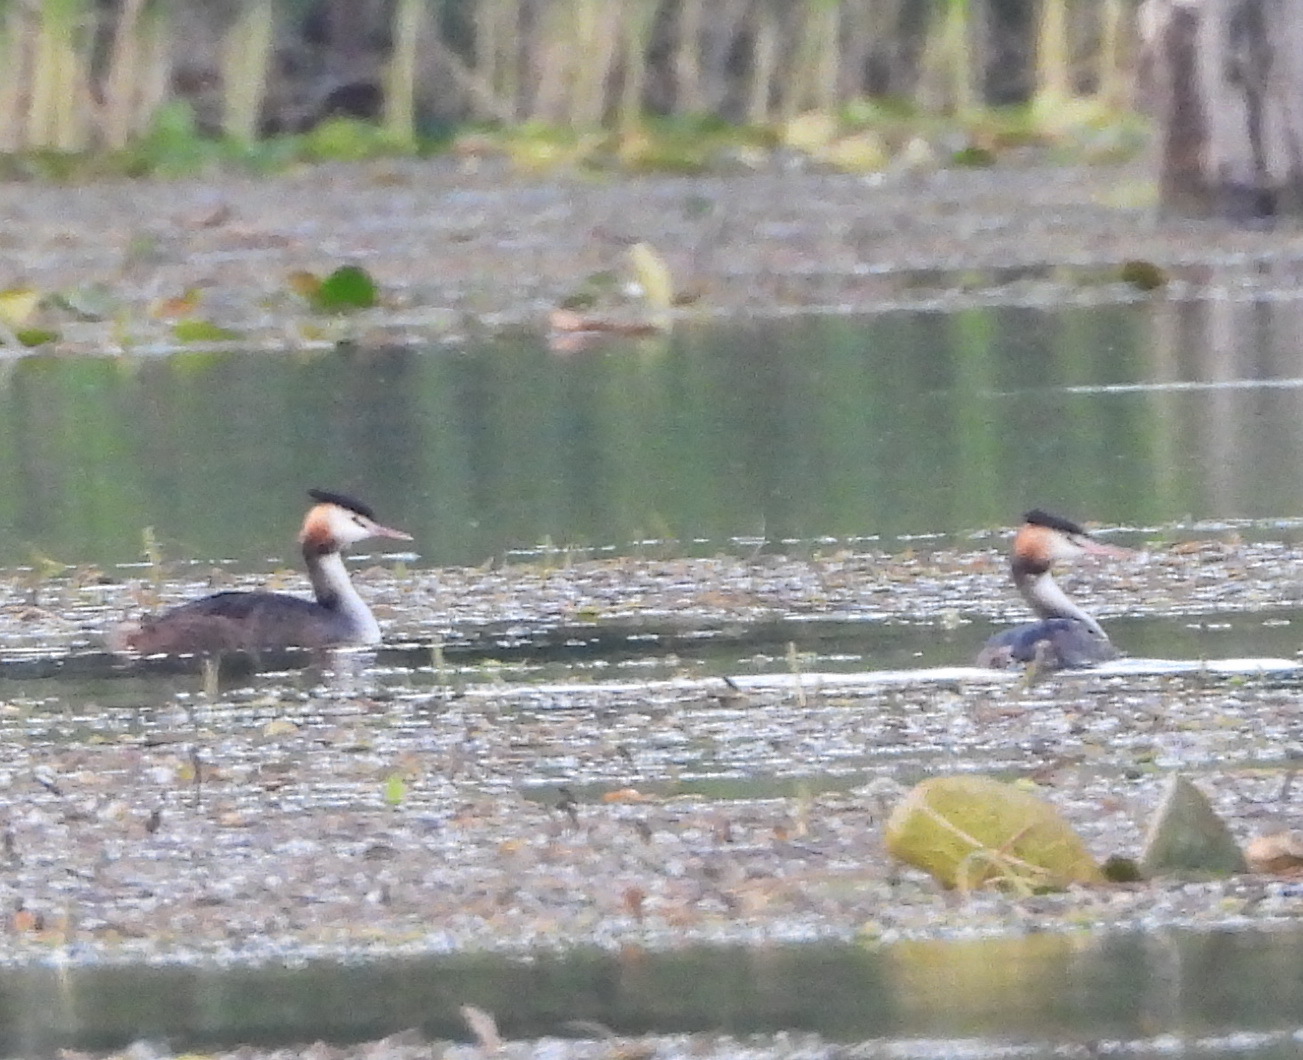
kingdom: Animalia
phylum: Chordata
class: Aves
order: Podicipediformes
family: Podicipedidae
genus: Podiceps
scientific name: Podiceps cristatus
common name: Great crested grebe
